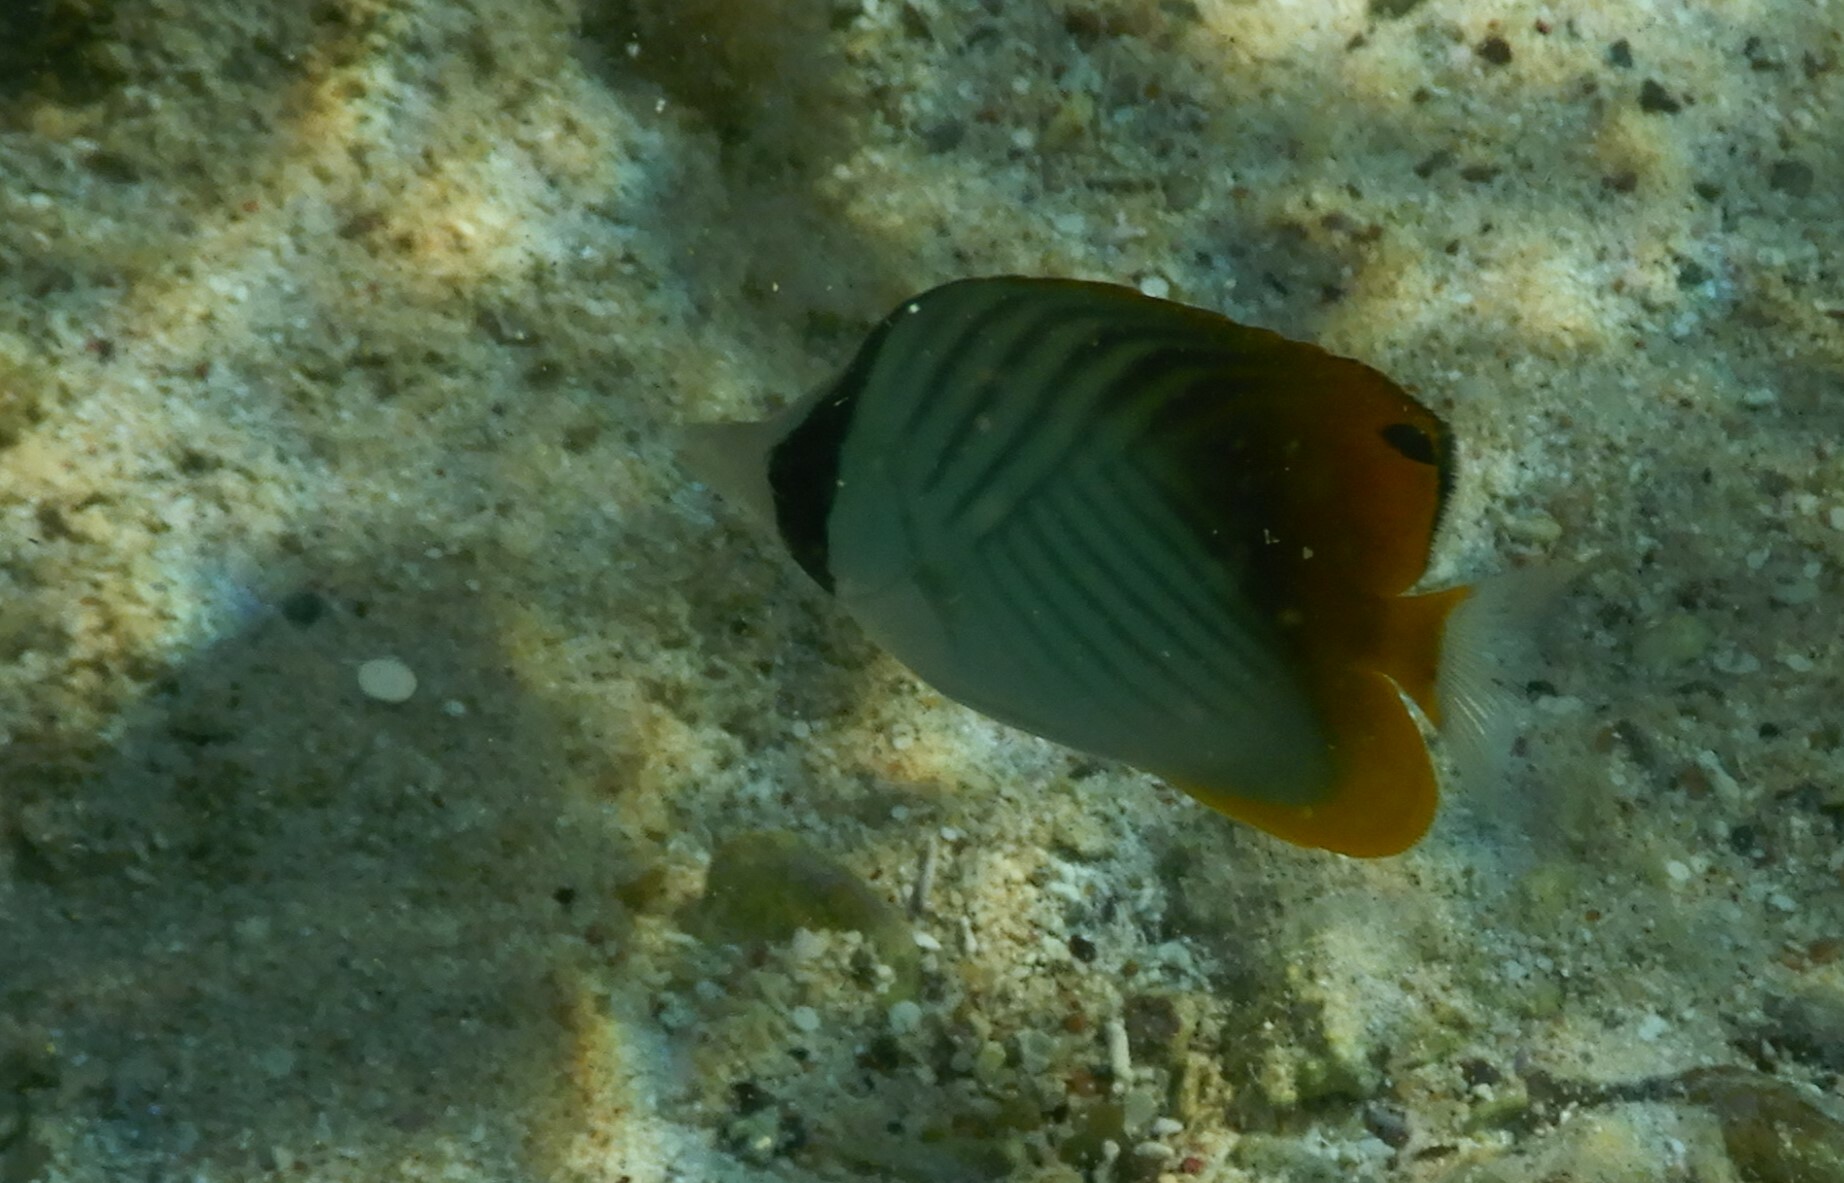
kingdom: Animalia
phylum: Chordata
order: Perciformes
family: Chaetodontidae
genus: Chaetodon
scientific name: Chaetodon auriga
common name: Threadfin butterflyfish
